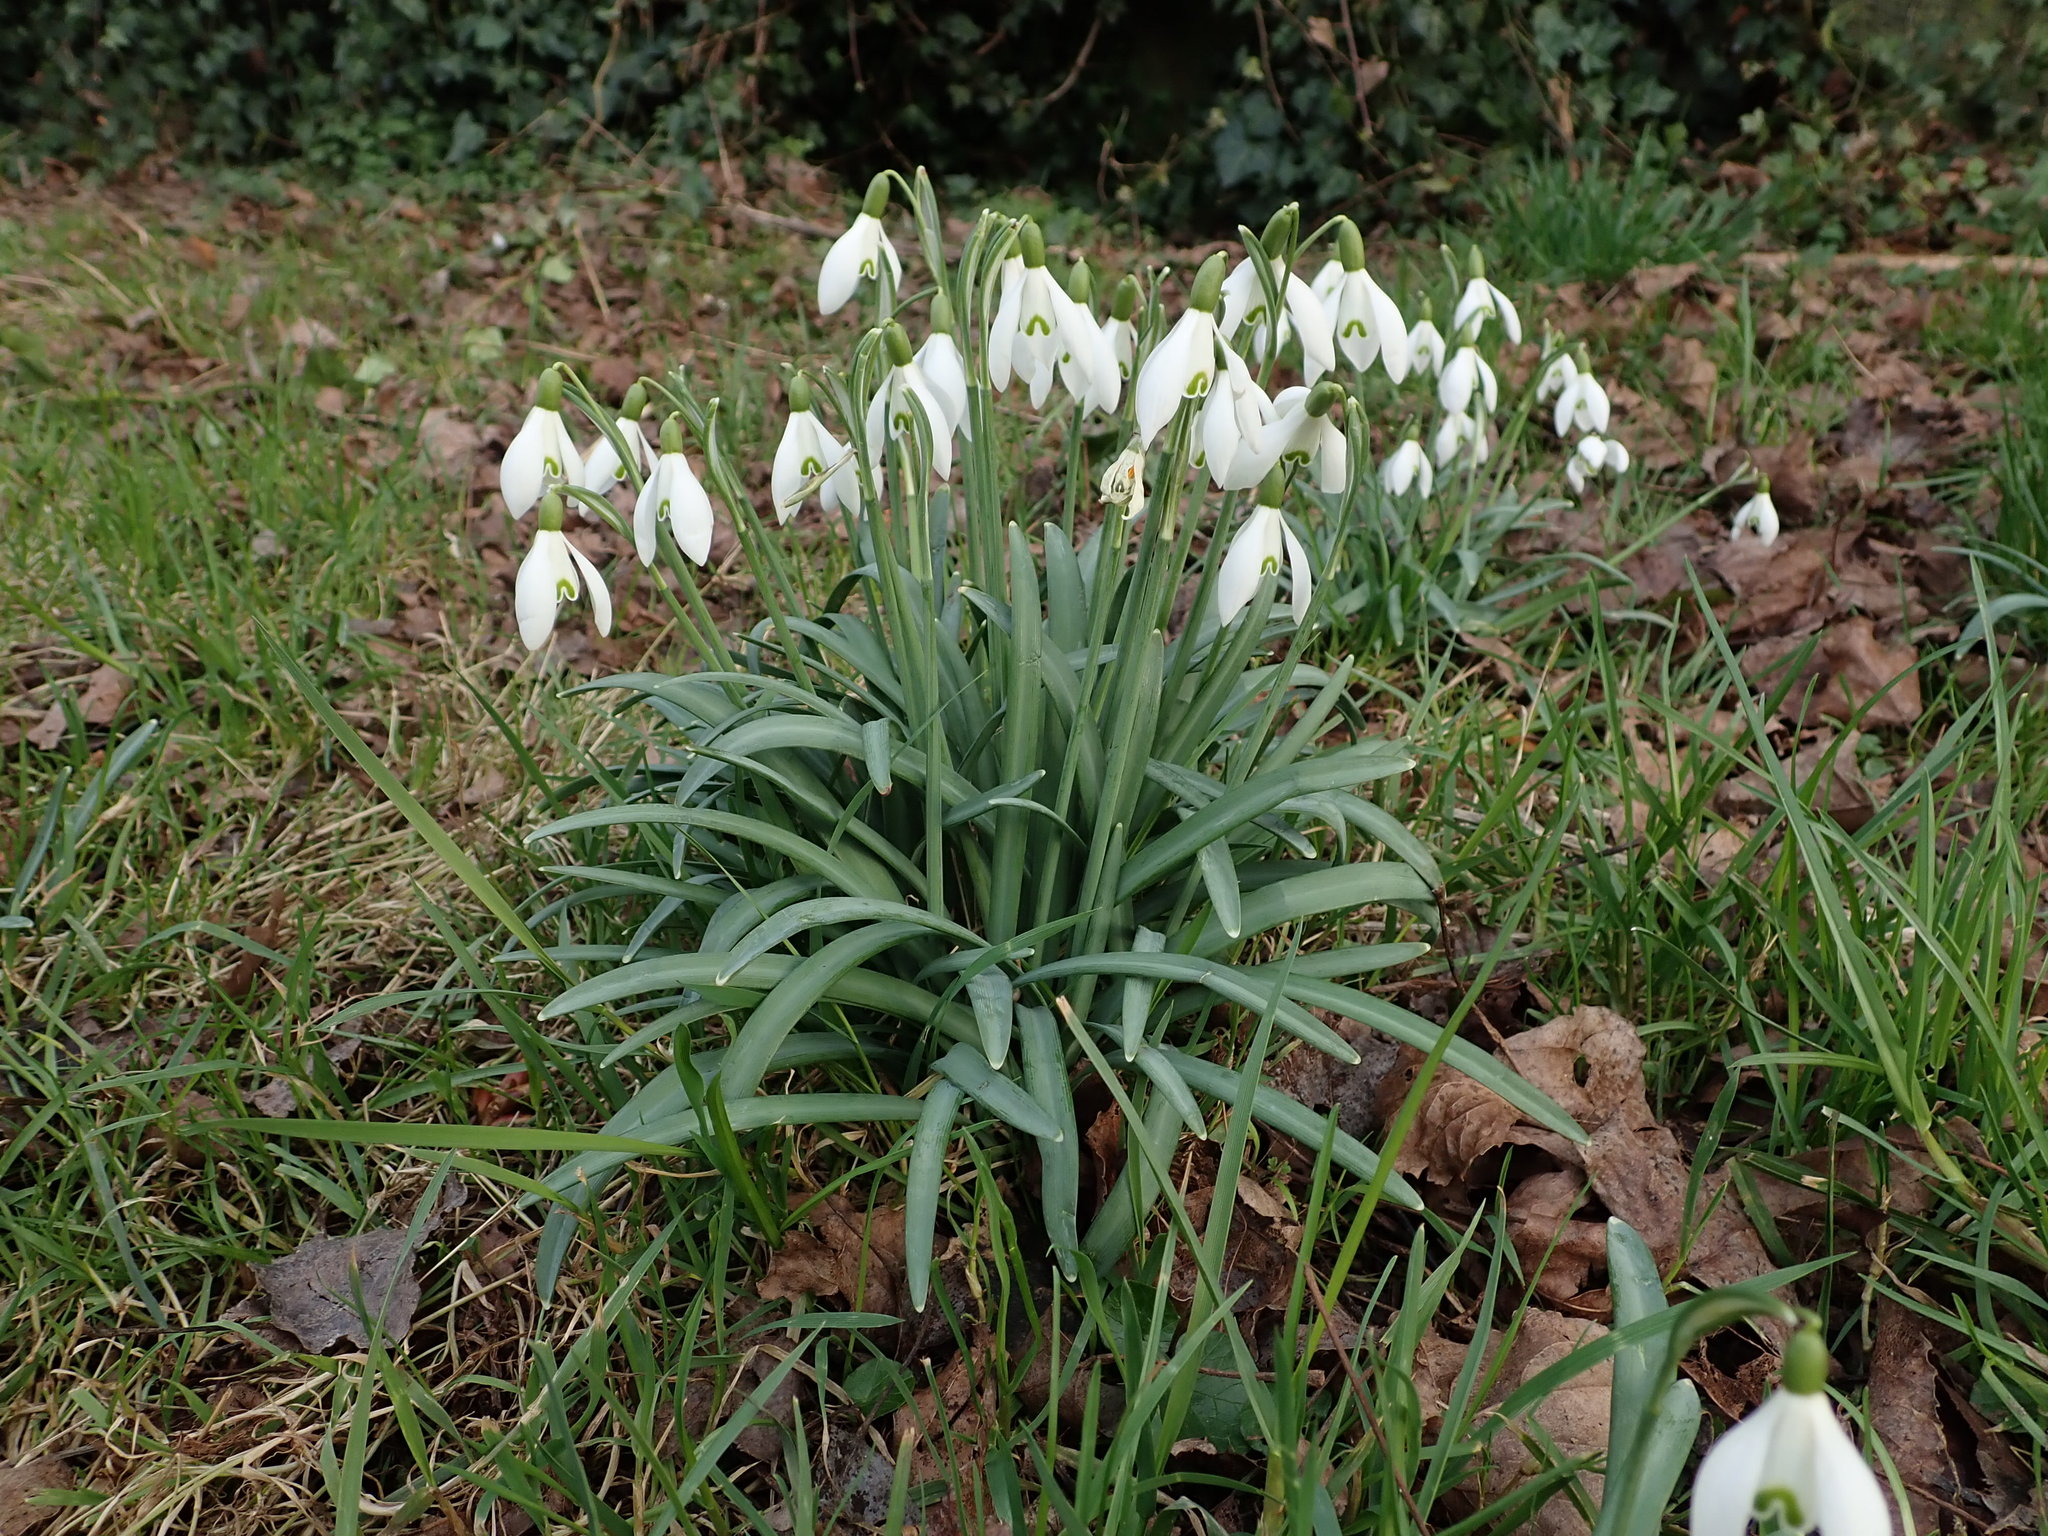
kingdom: Plantae
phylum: Tracheophyta
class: Liliopsida
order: Asparagales
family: Amaryllidaceae
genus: Galanthus
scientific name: Galanthus nivalis
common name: Snowdrop
